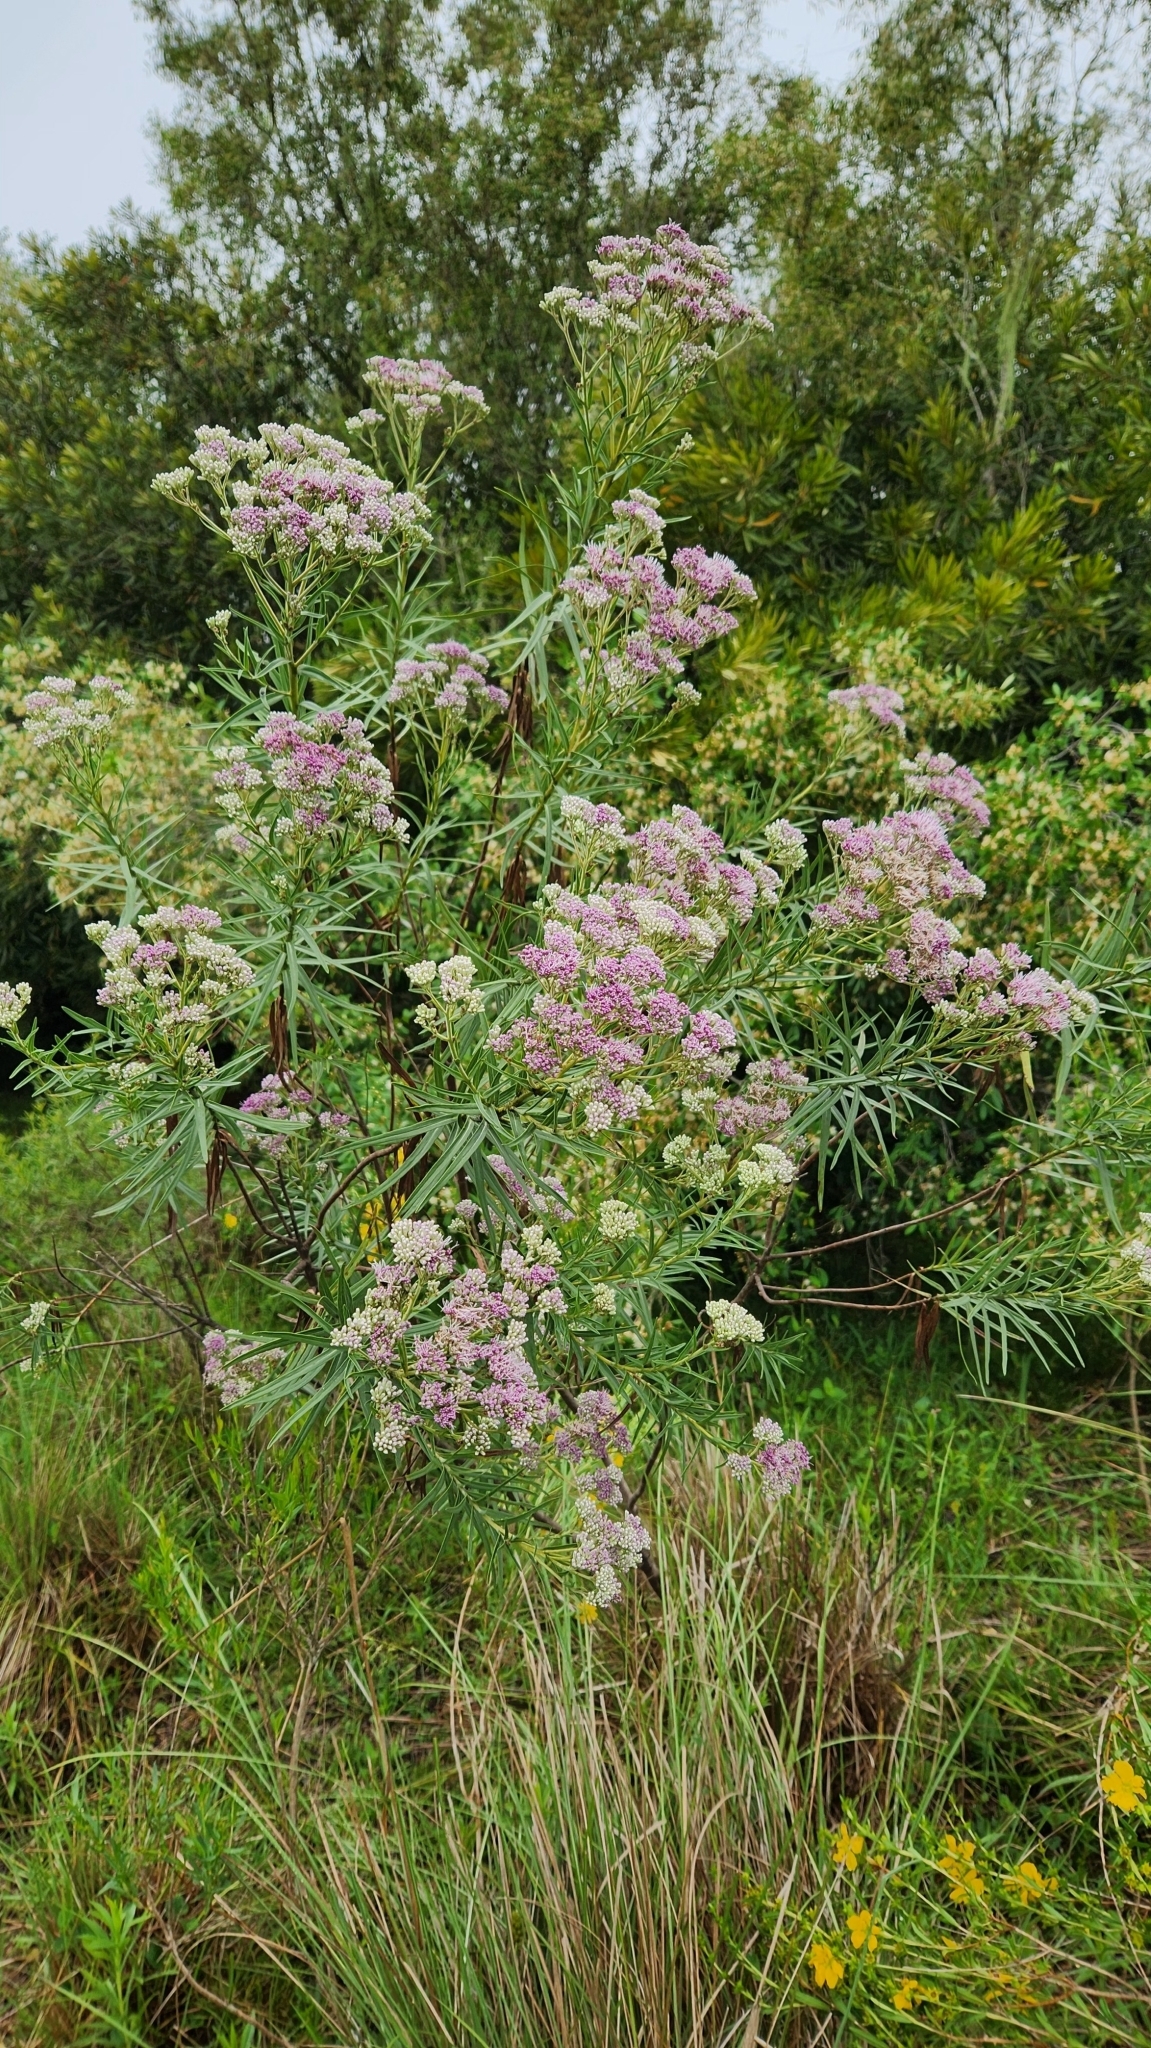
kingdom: Plantae
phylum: Tracheophyta
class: Magnoliopsida
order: Asterales
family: Asteraceae
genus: Campovassouria
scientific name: Campovassouria cruciata
